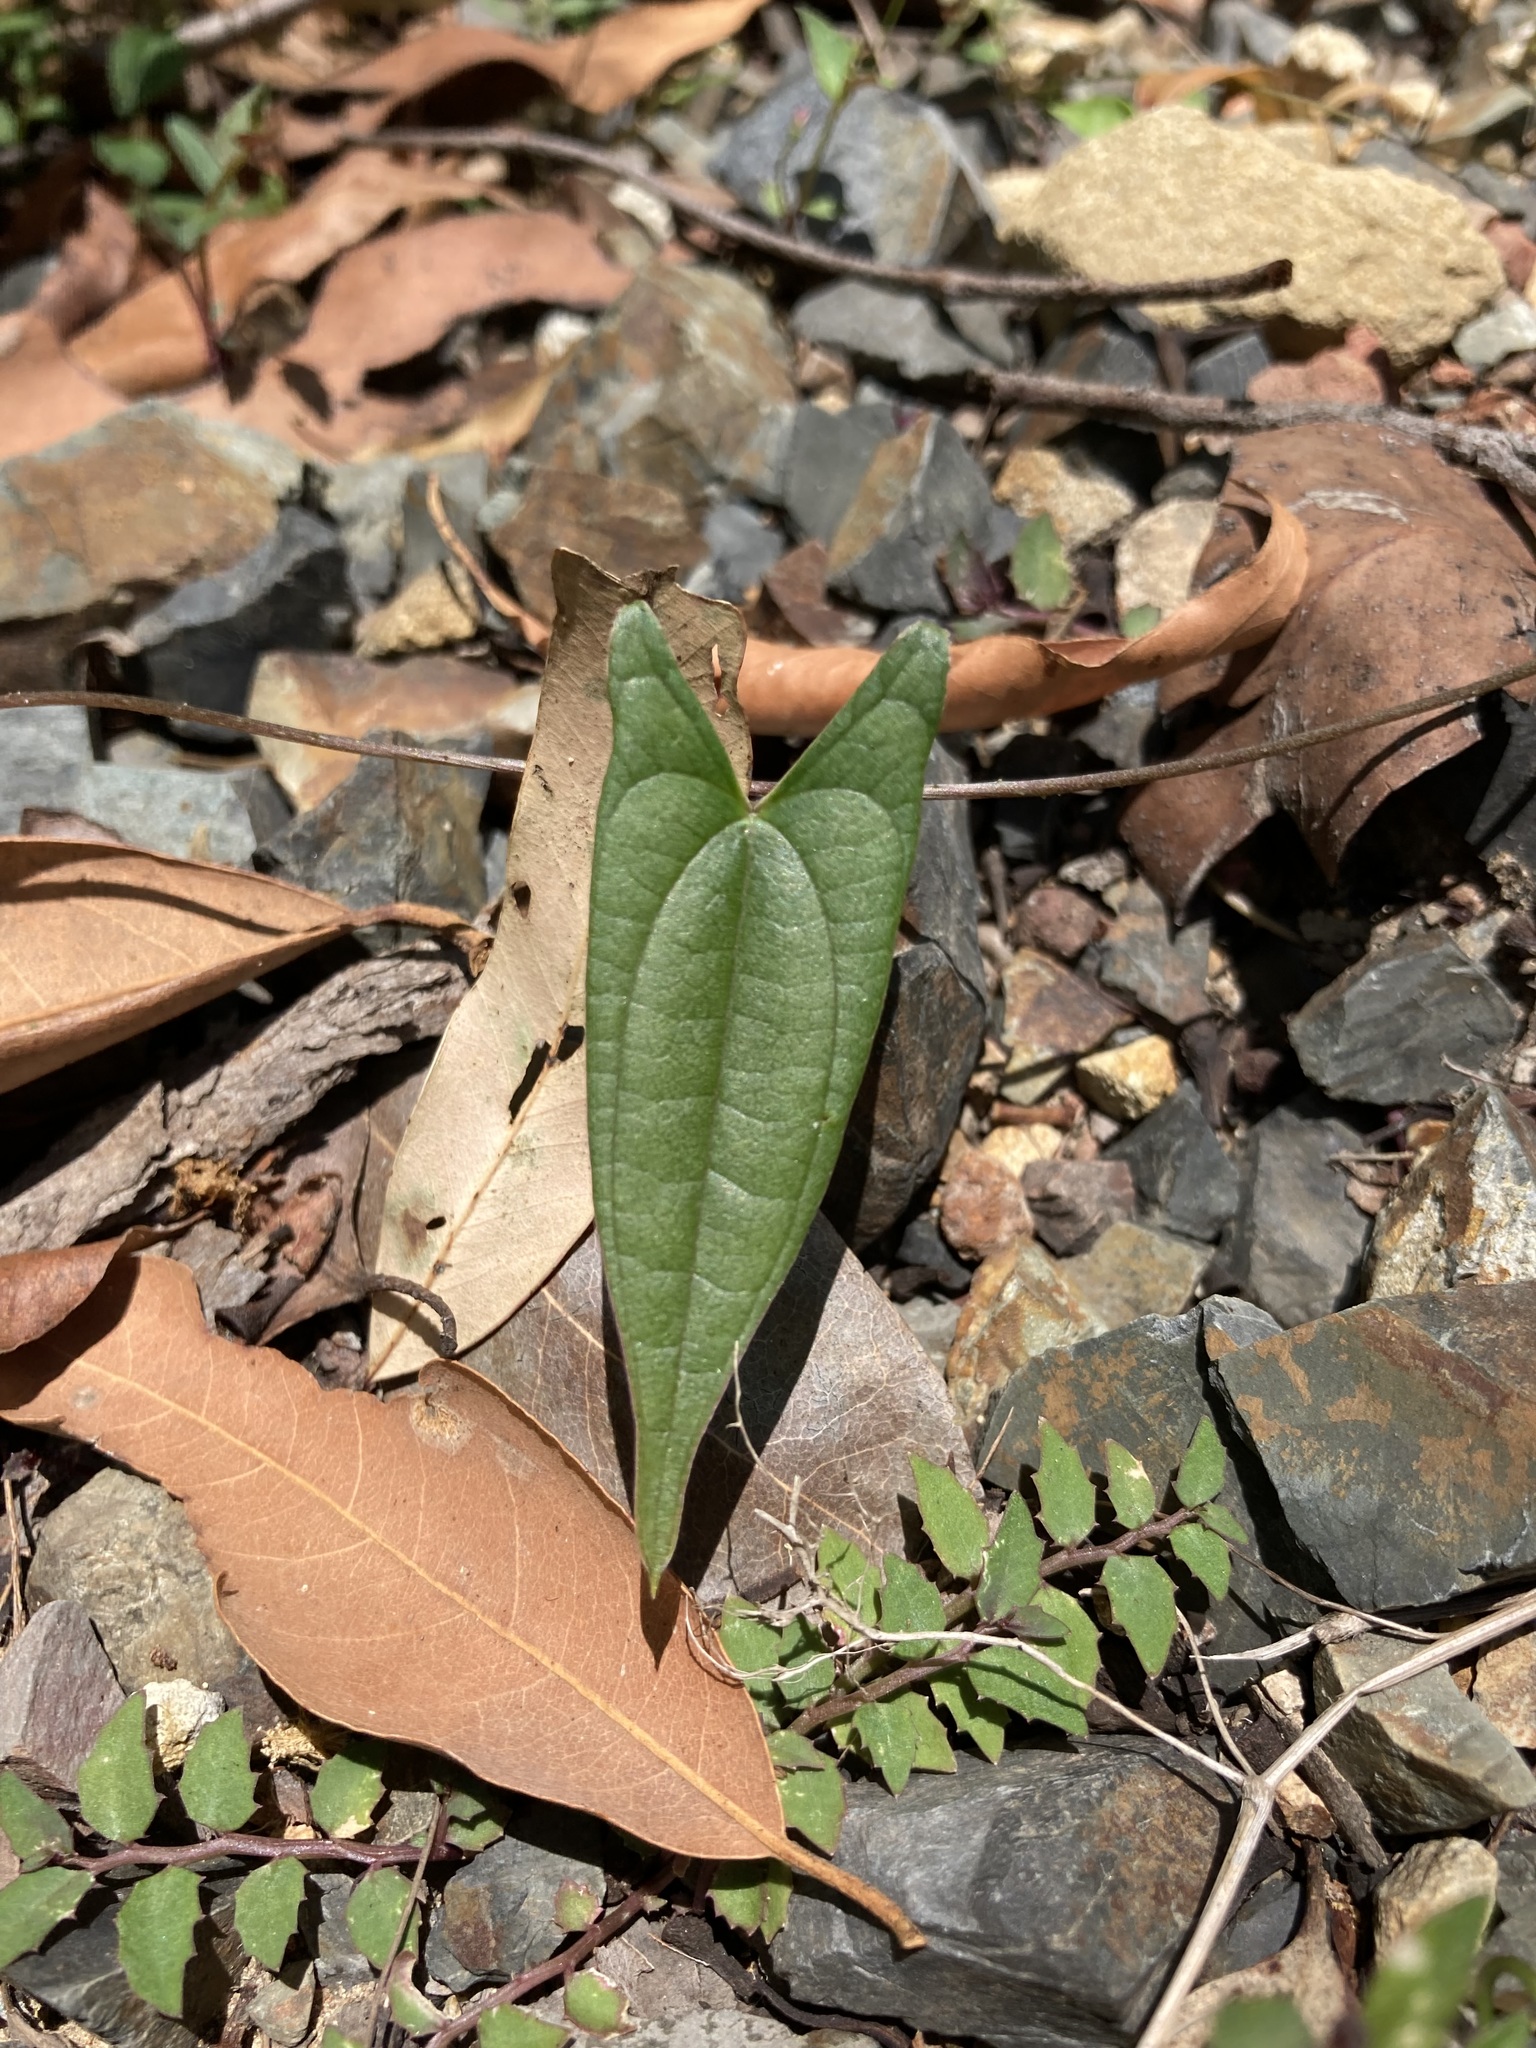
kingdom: Plantae
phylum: Tracheophyta
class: Liliopsida
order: Dioscoreales
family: Dioscoreaceae
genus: Dioscorea
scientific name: Dioscorea transversa
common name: Long yam
